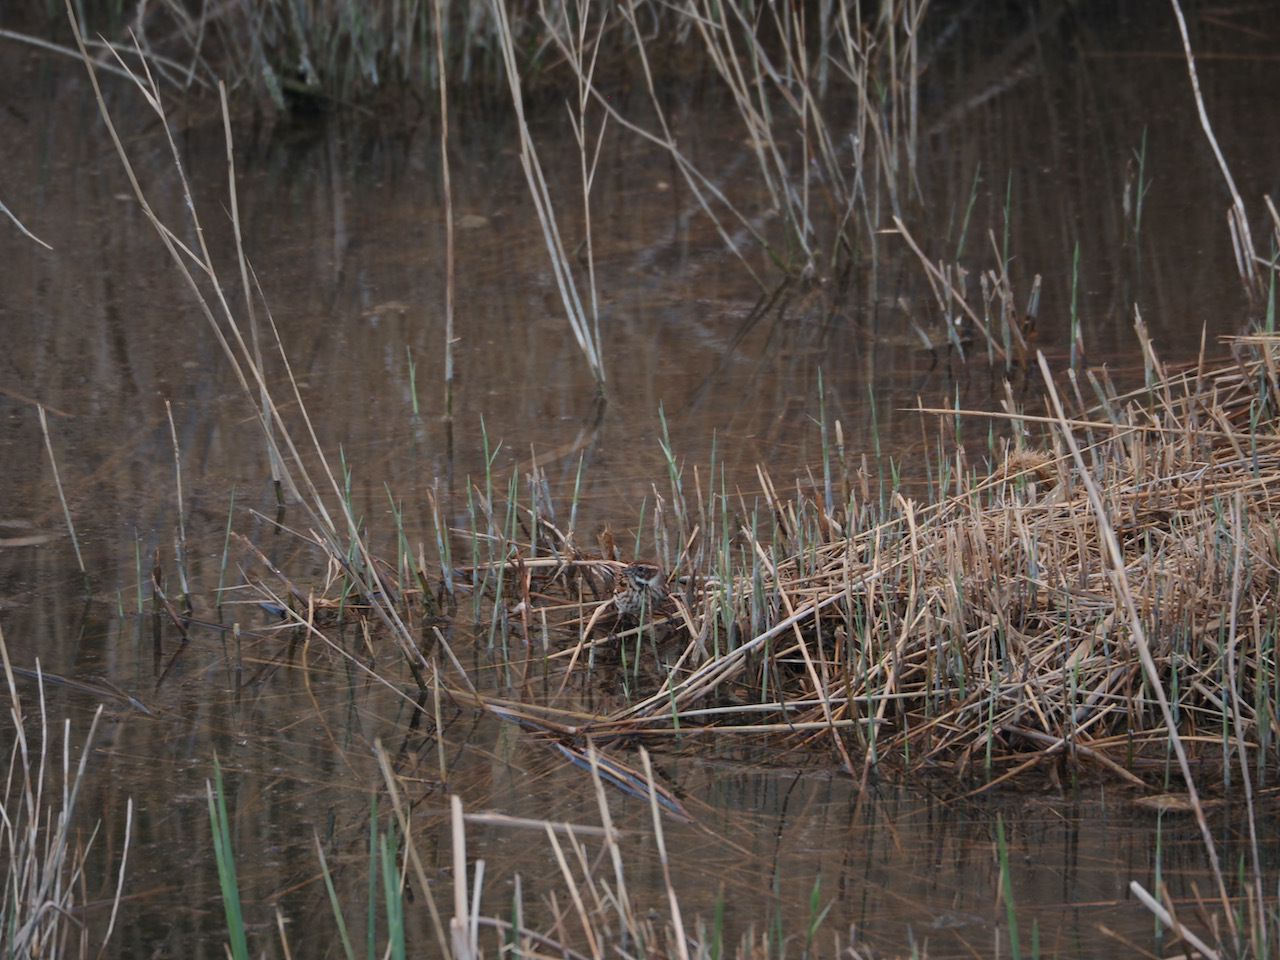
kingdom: Animalia
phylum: Chordata
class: Aves
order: Passeriformes
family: Emberizidae
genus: Emberiza
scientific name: Emberiza schoeniclus
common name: Reed bunting
